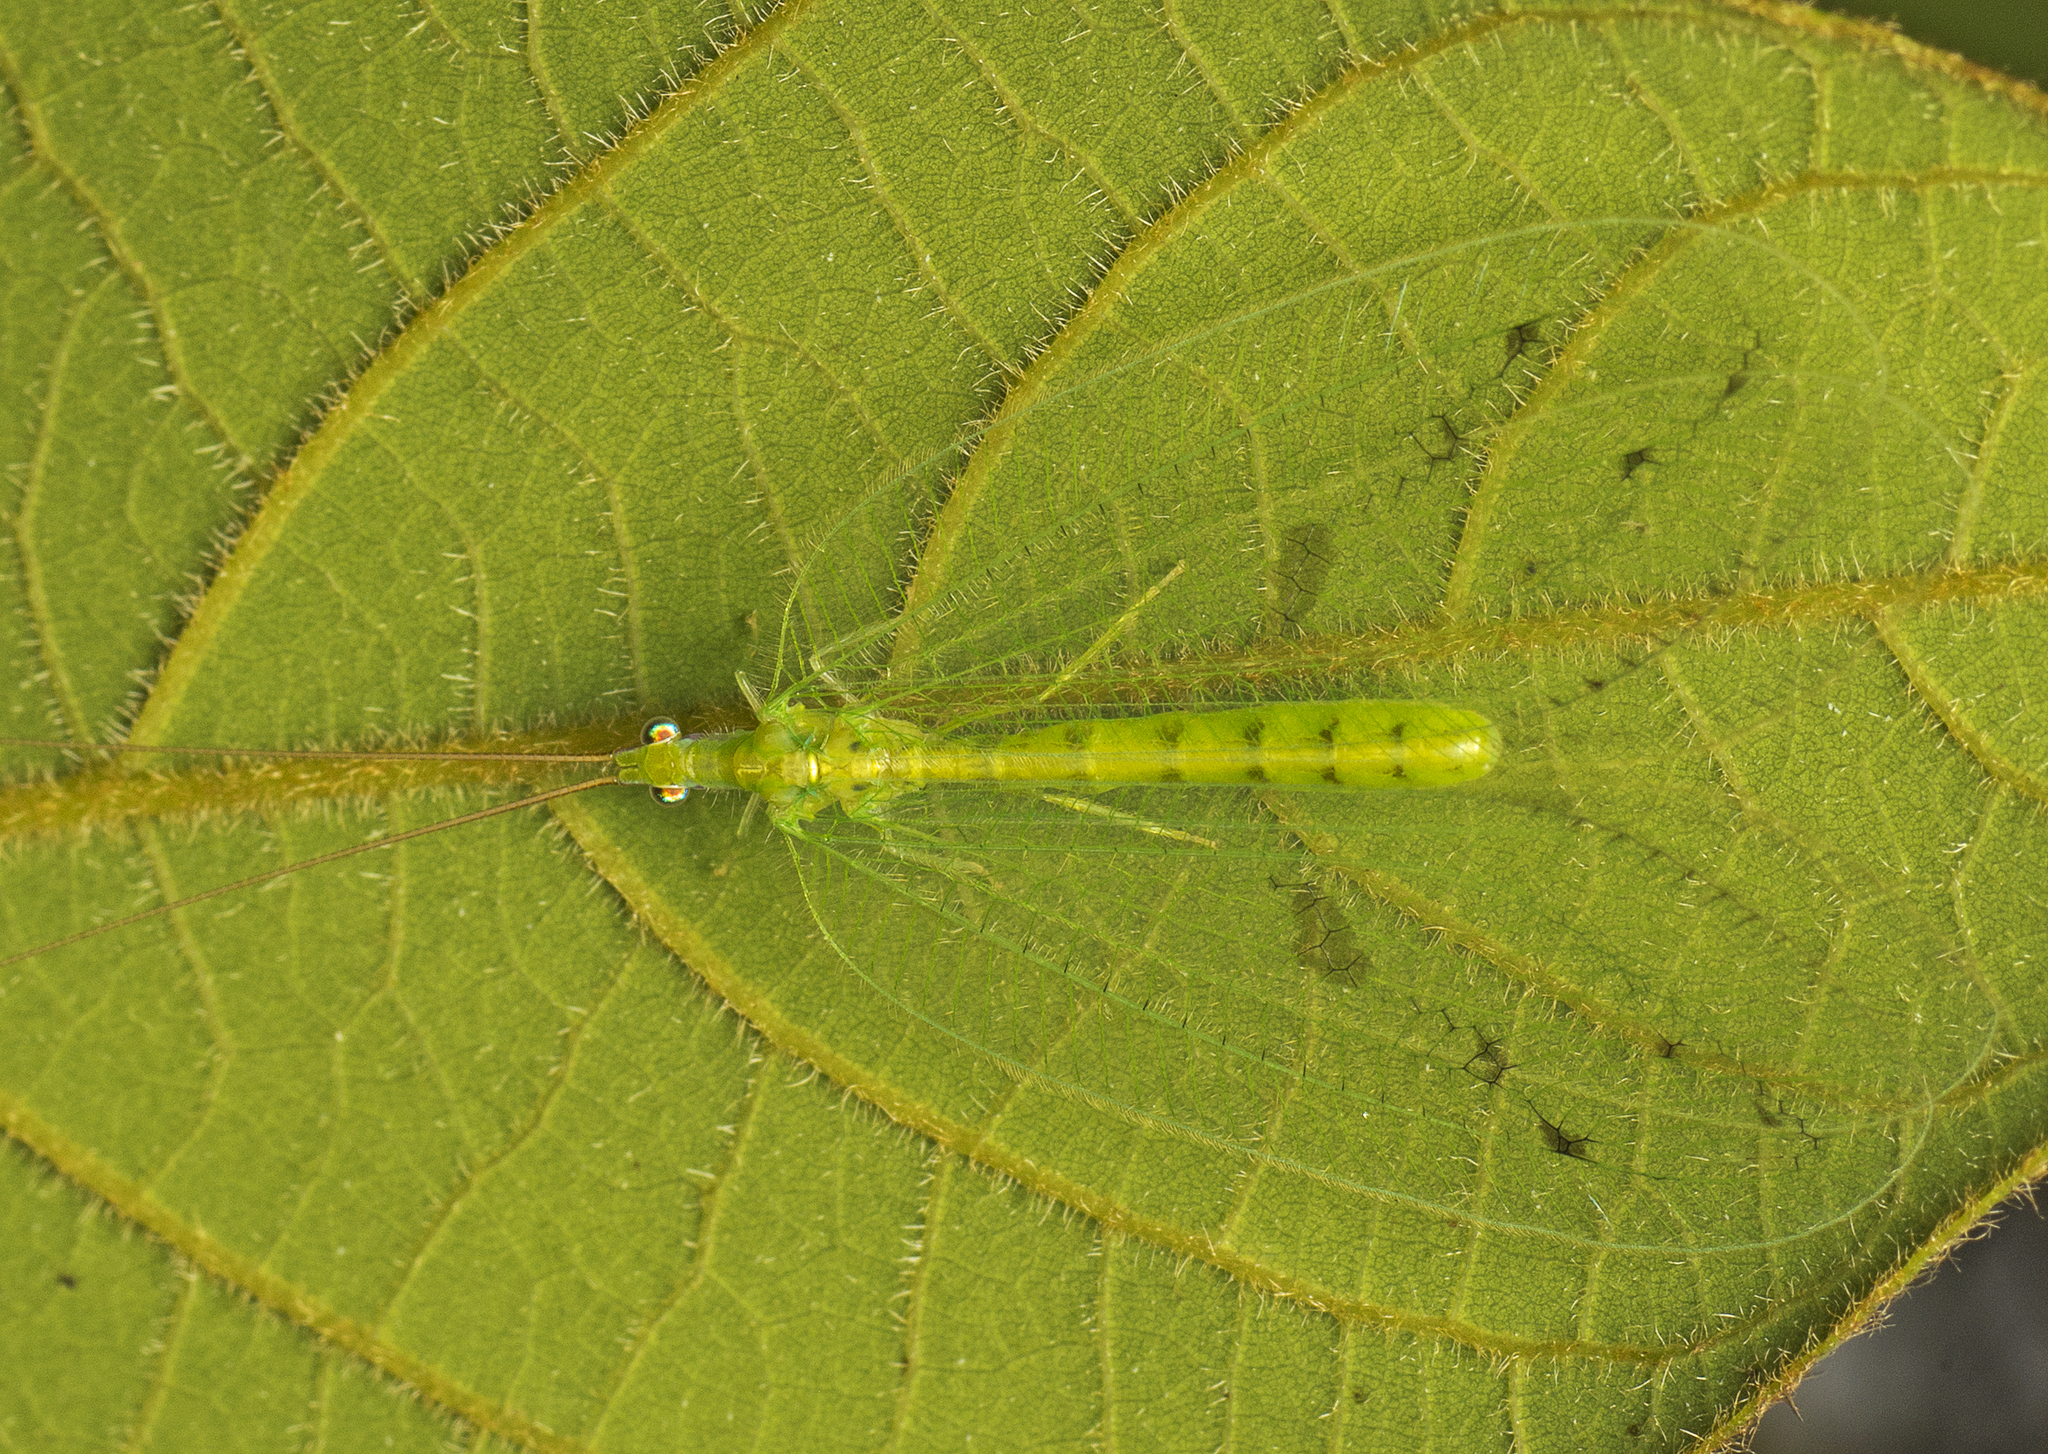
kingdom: Animalia
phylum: Arthropoda
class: Insecta
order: Neuroptera
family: Chrysopidae
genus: Apochrysa
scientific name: Apochrysa lutea
